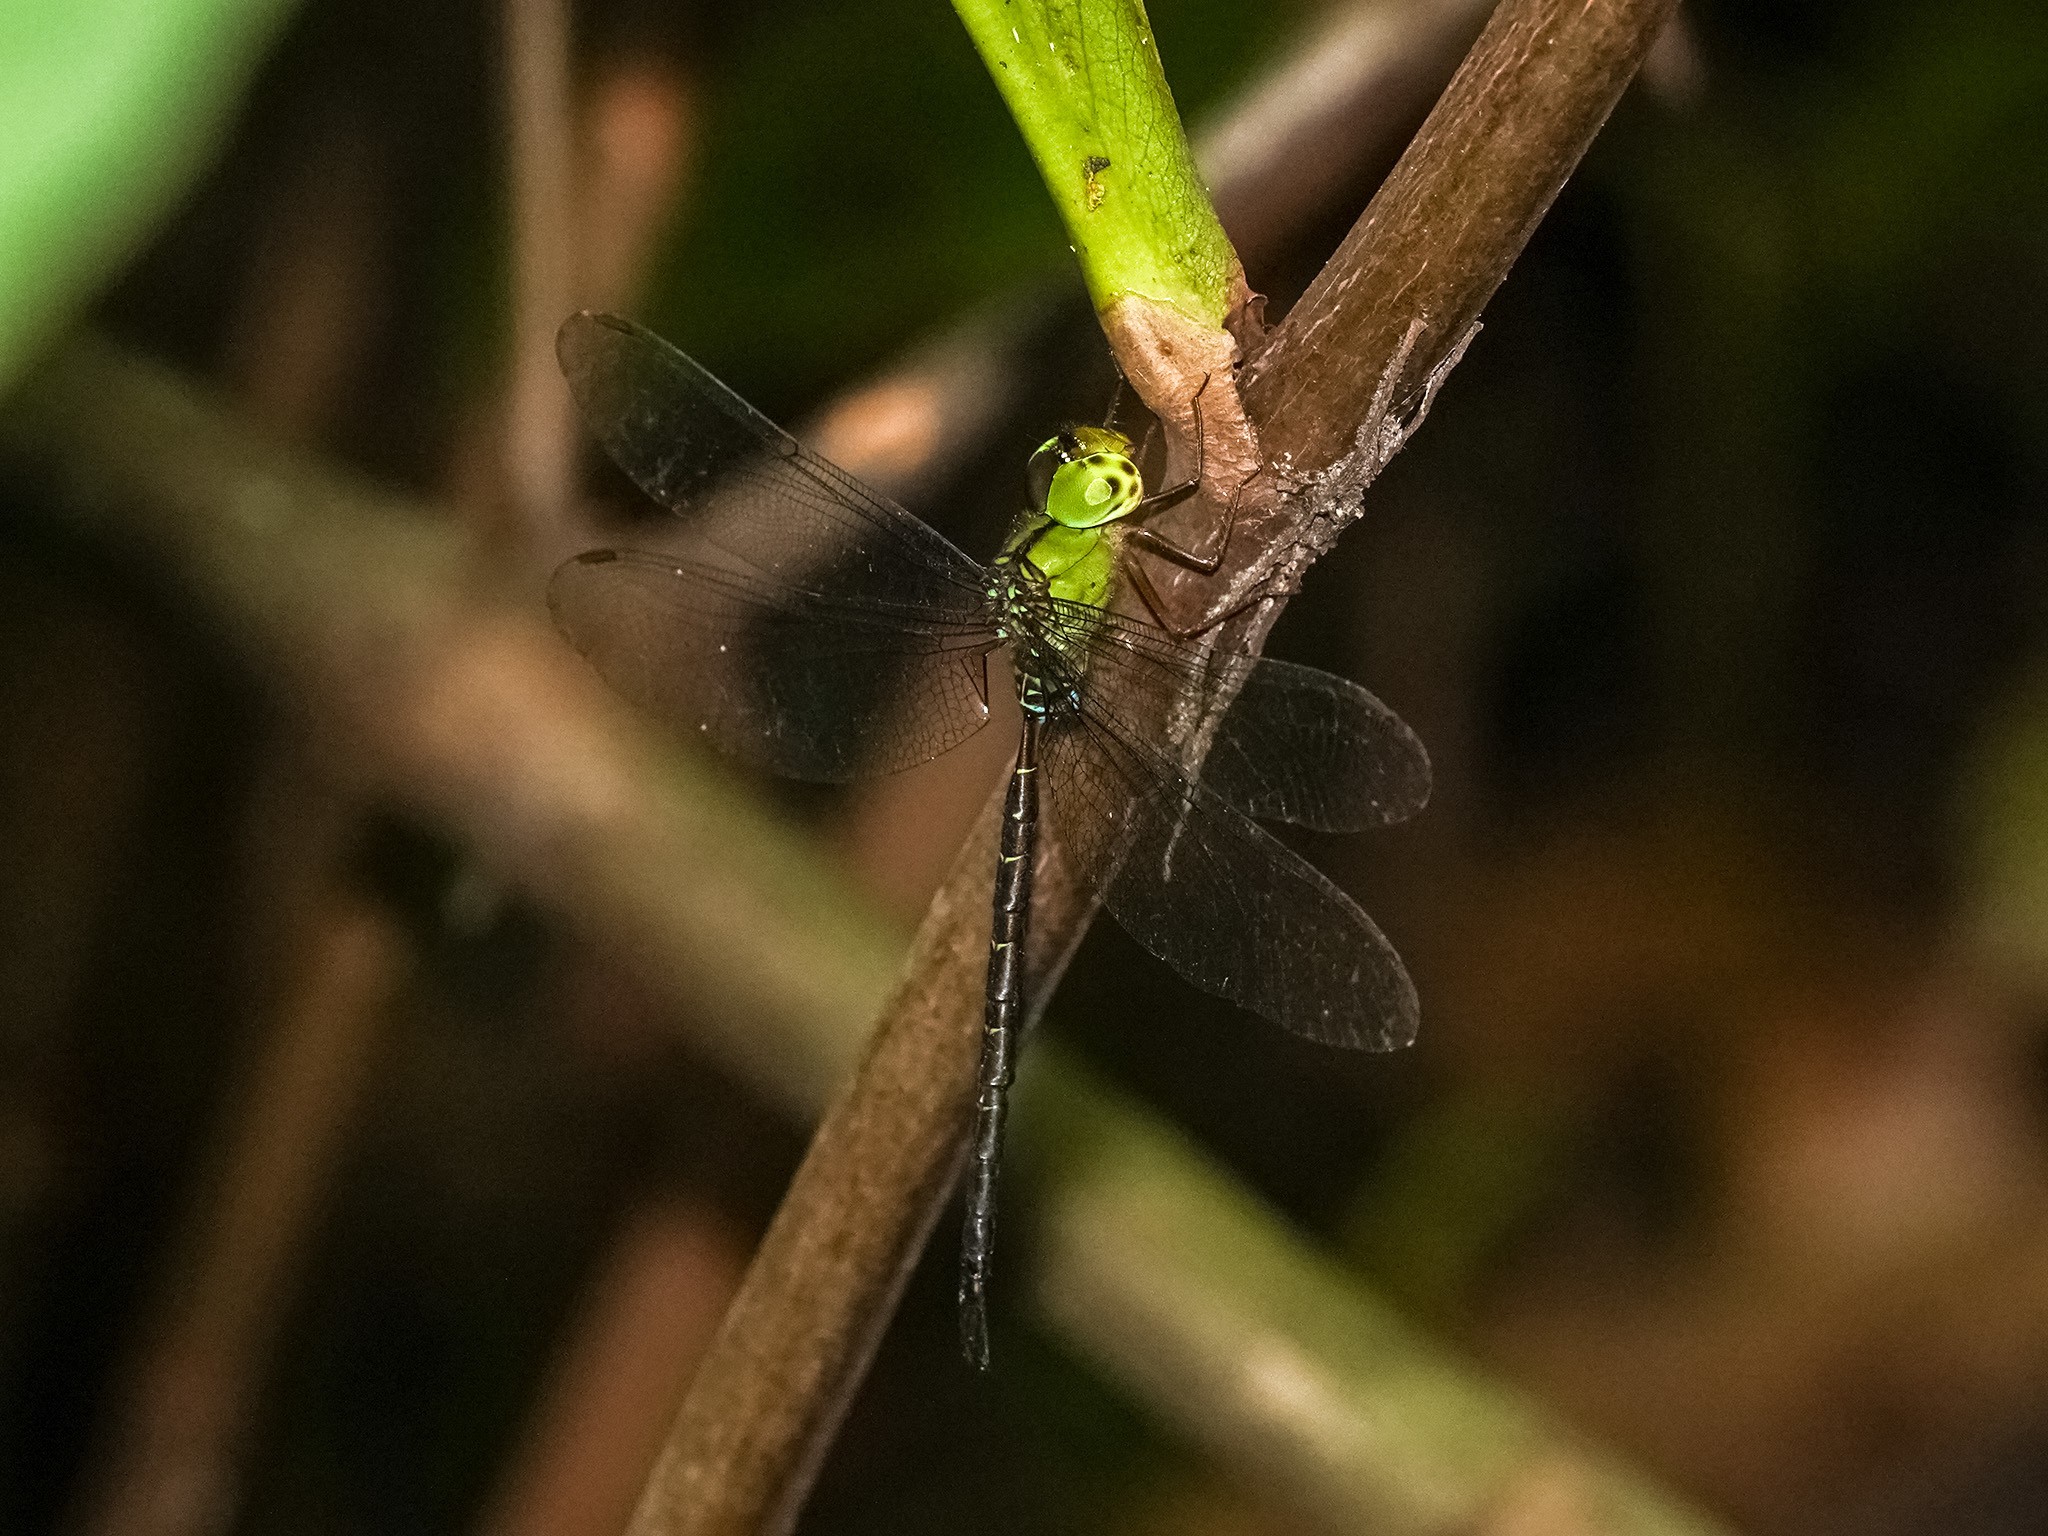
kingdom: Animalia
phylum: Arthropoda
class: Insecta
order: Odonata
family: Aeshnidae
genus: Gynacantha
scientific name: Gynacantha dohrni
